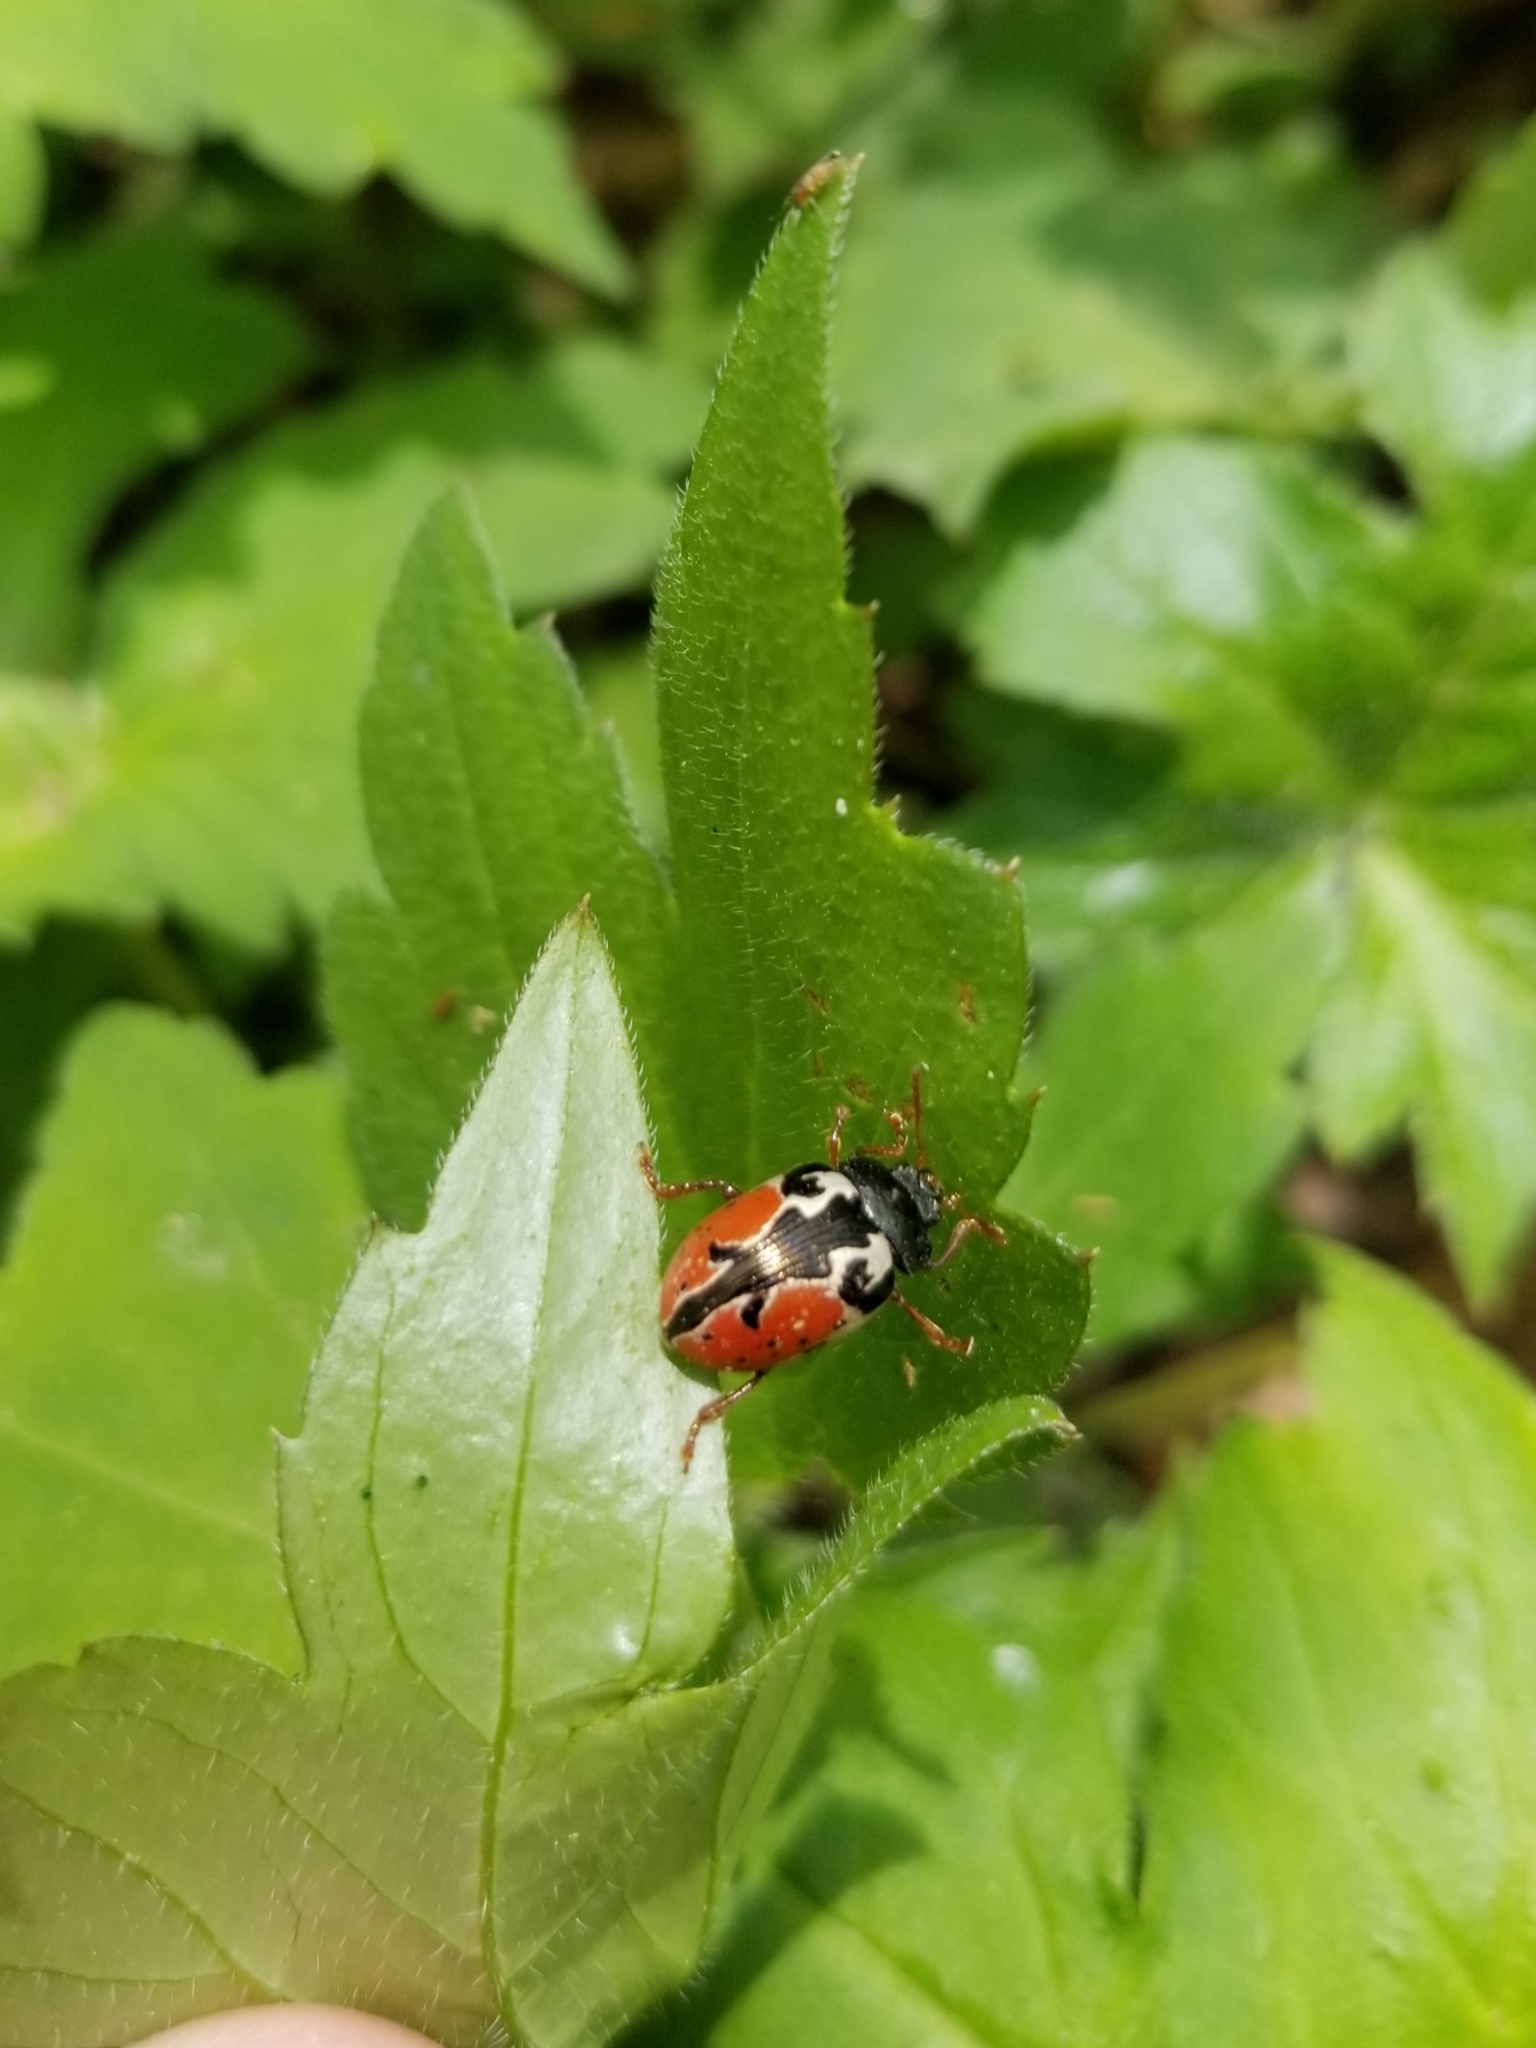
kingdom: Animalia
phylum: Arthropoda
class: Insecta
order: Coleoptera
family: Chrysomelidae
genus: Calligrapha
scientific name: Calligrapha rowena
